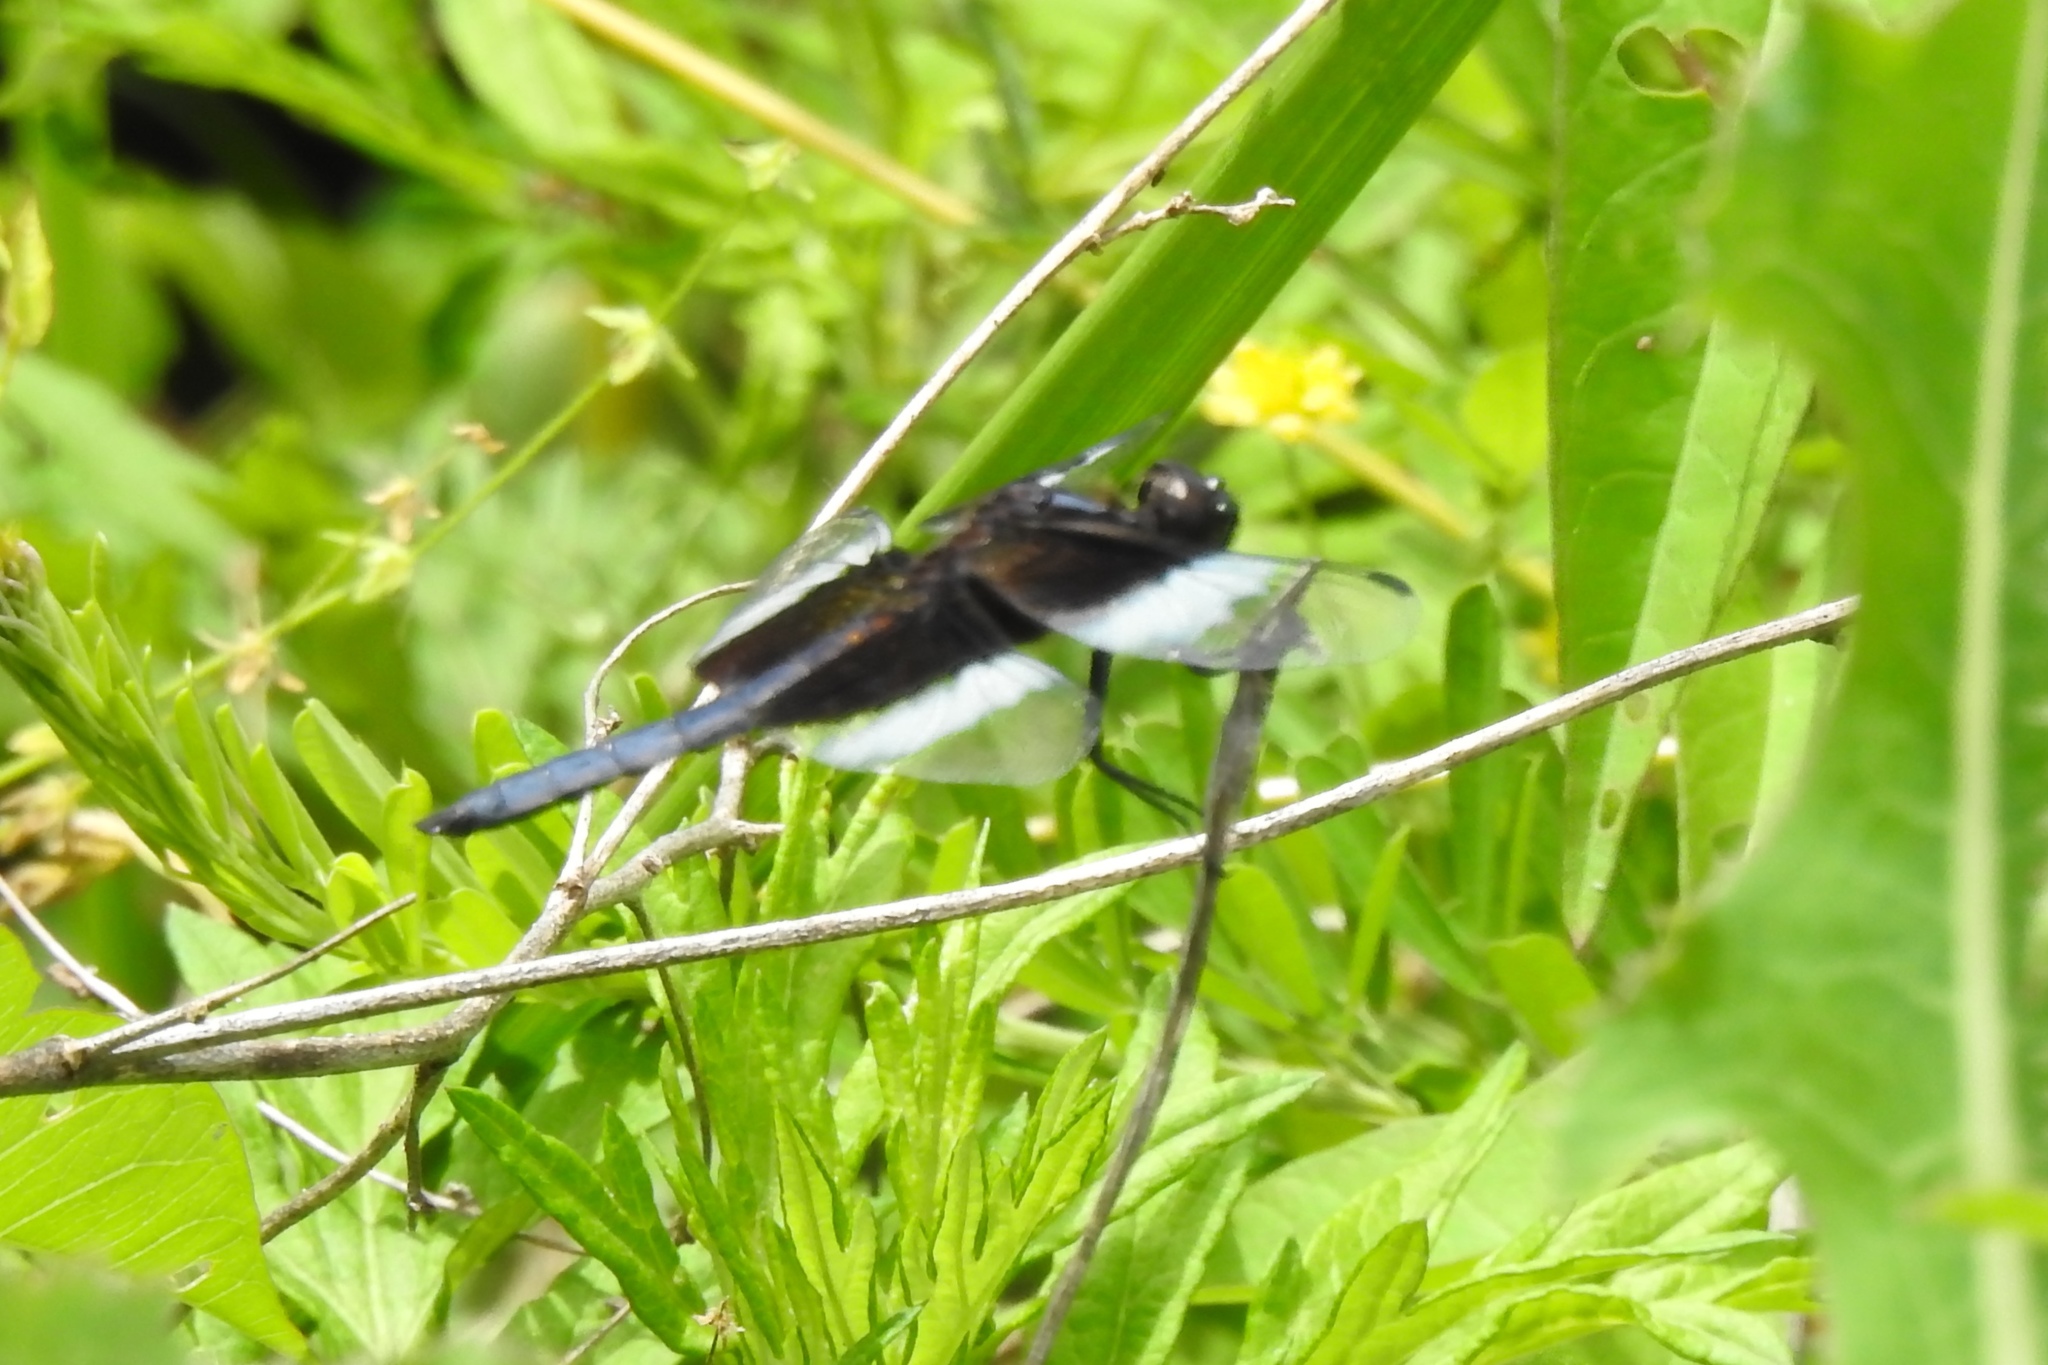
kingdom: Animalia
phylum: Arthropoda
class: Insecta
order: Odonata
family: Libellulidae
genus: Libellula
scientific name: Libellula luctuosa
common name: Widow skimmer
